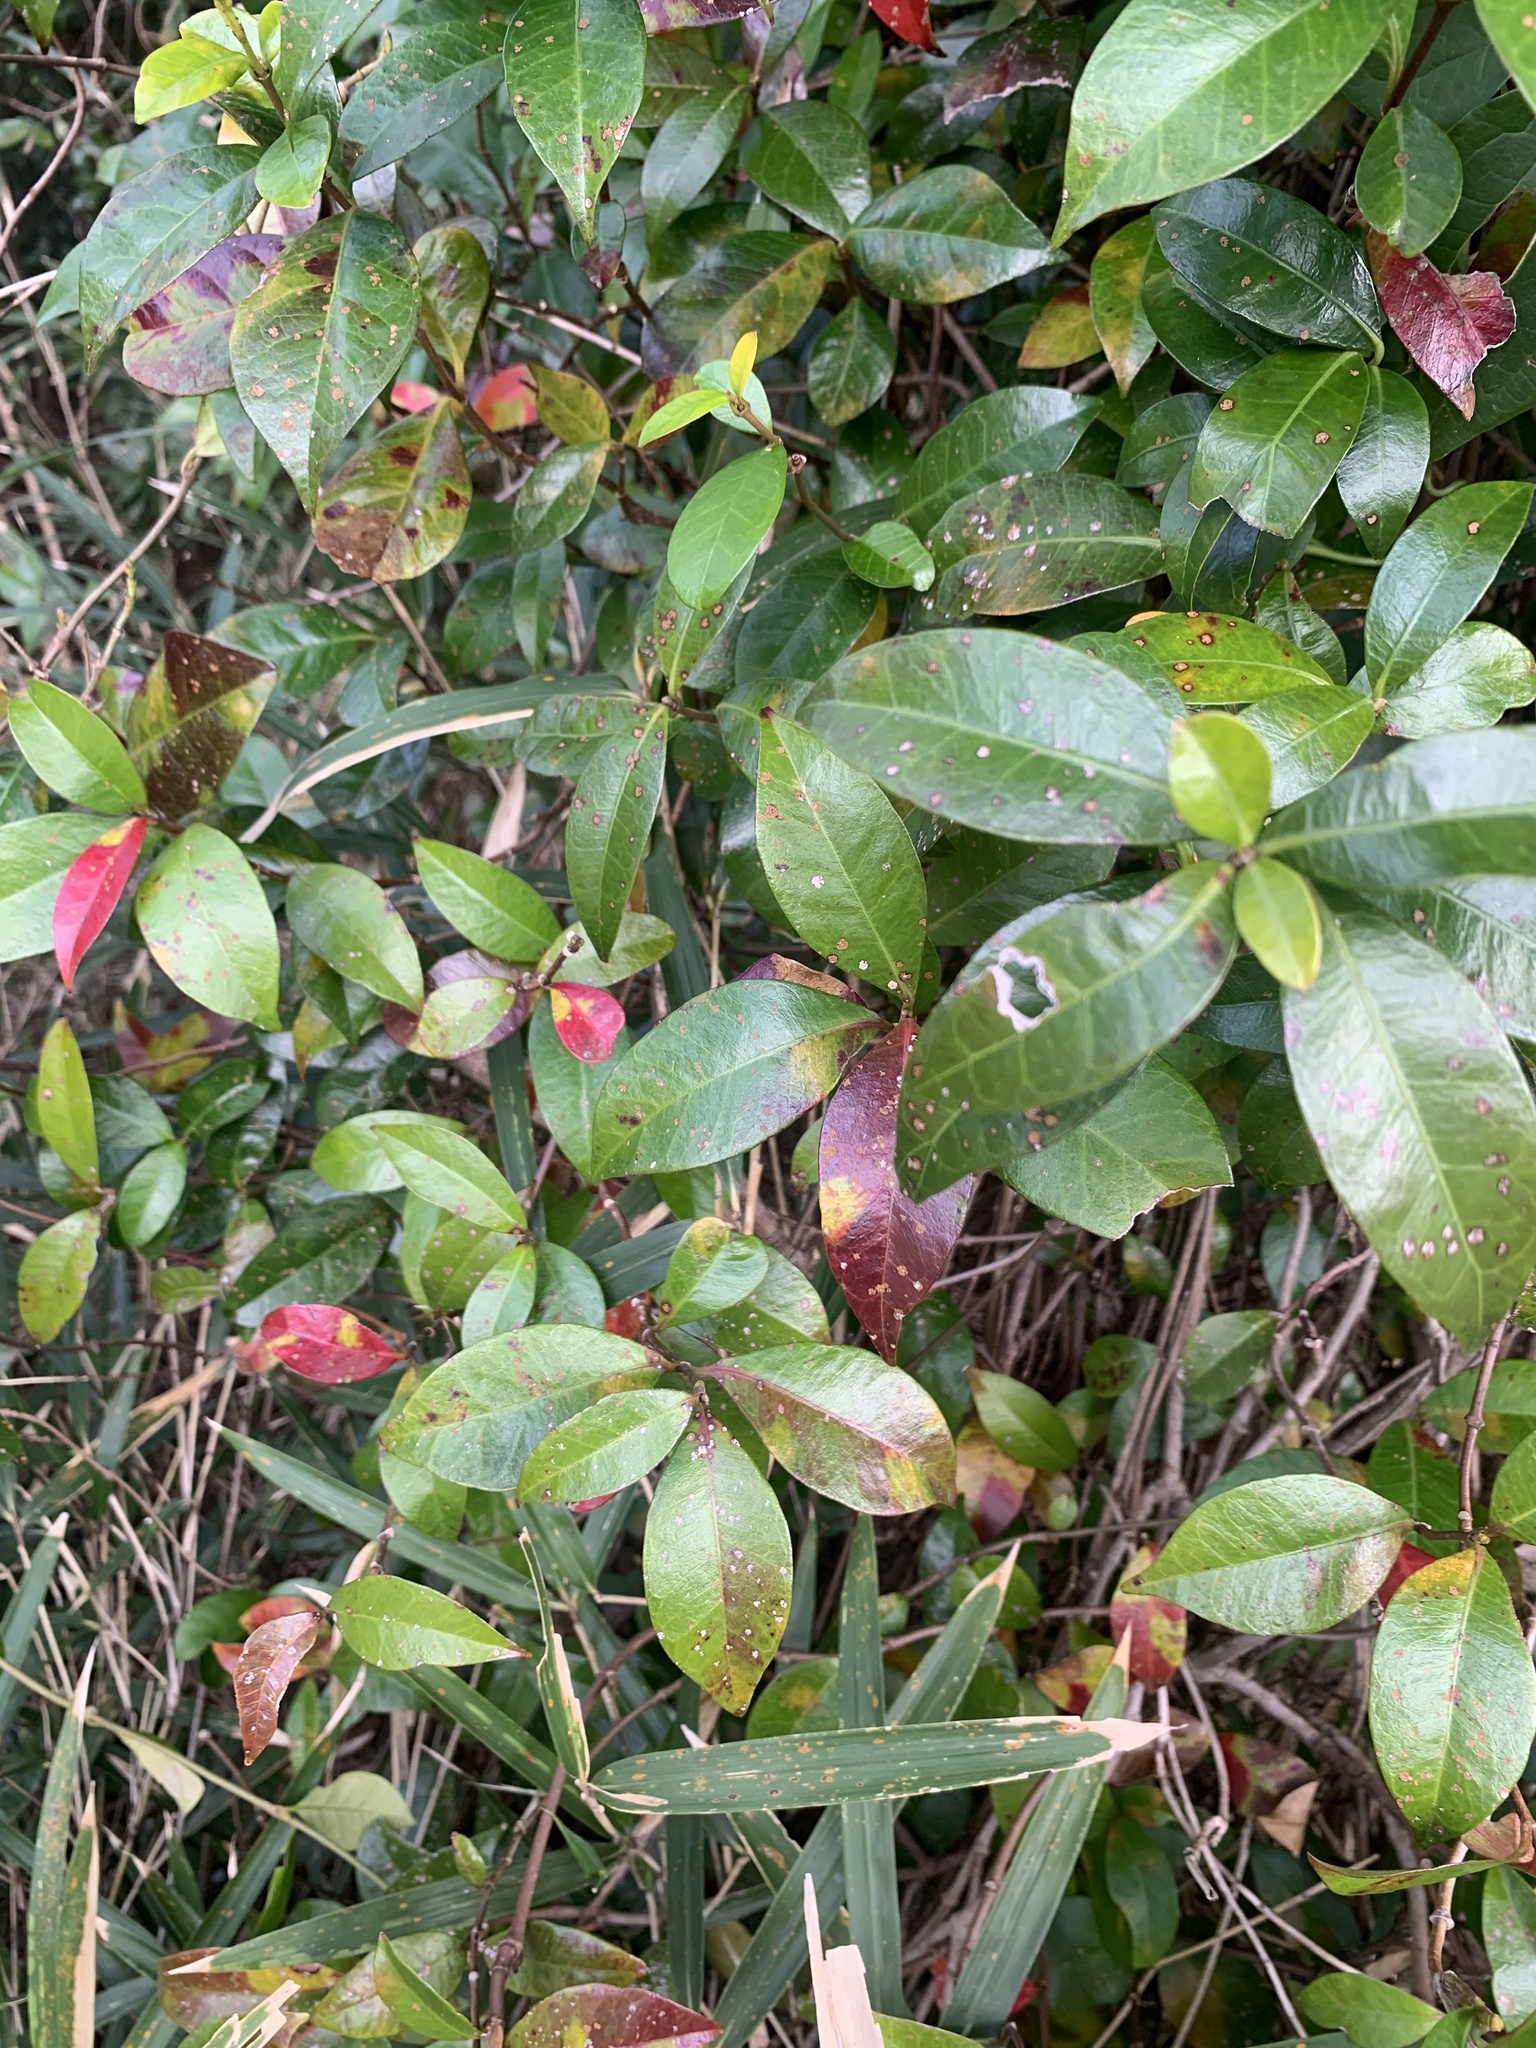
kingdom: Plantae
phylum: Tracheophyta
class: Magnoliopsida
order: Gentianales
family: Apocynaceae
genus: Trachelospermum
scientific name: Trachelospermum asiaticum
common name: Asiatic jasmine
